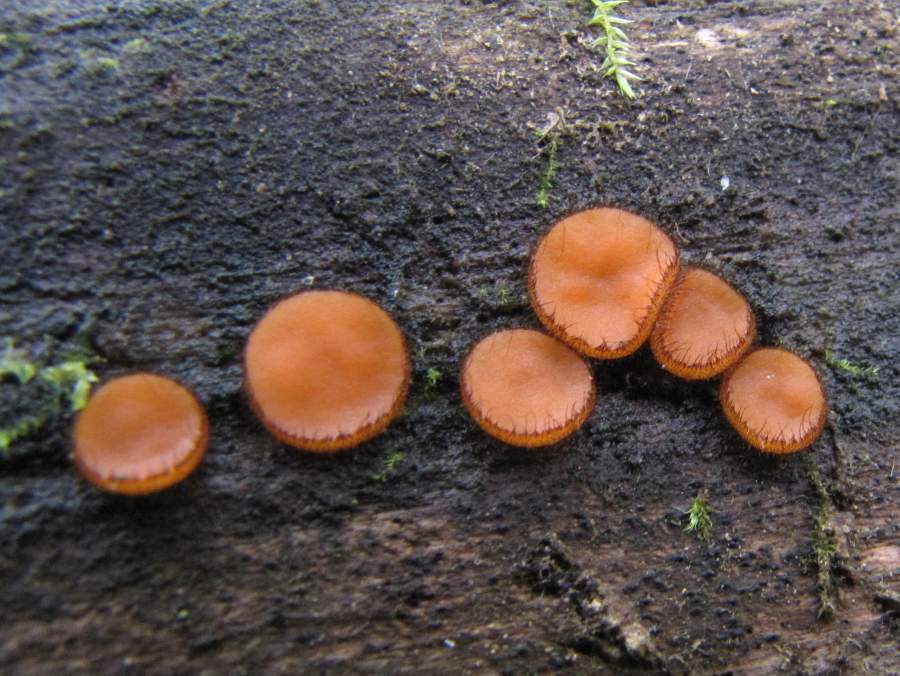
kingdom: Fungi
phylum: Ascomycota
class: Pezizomycetes
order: Pezizales
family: Pyronemataceae
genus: Scutellinia
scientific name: Scutellinia scutellata
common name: Common eyelash
